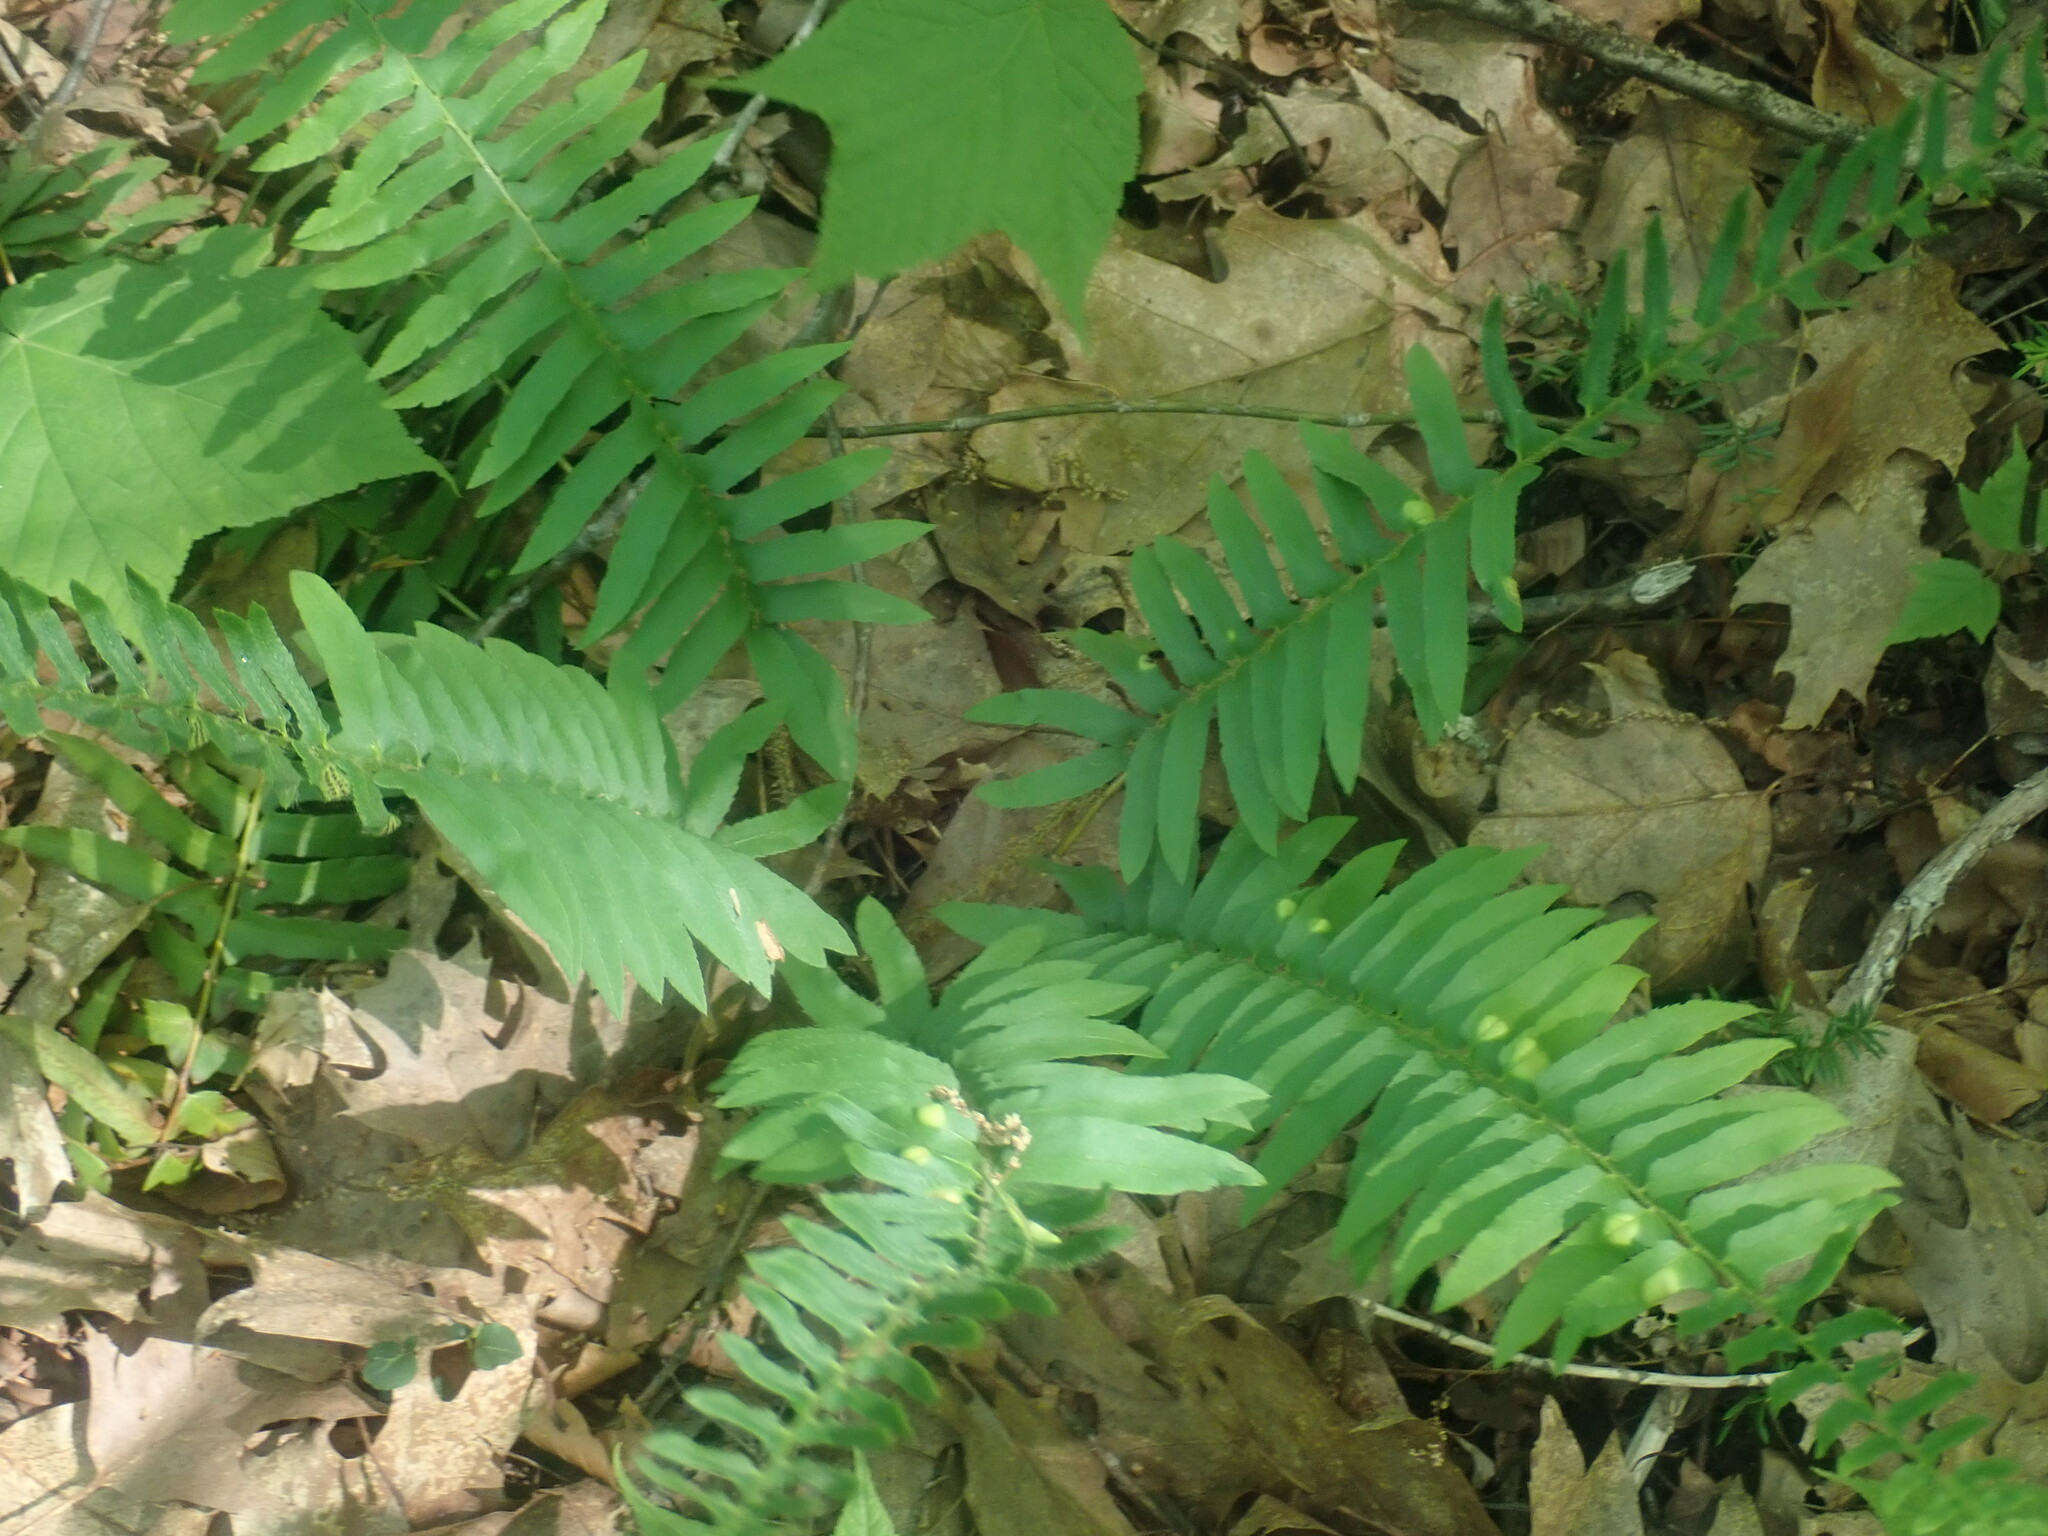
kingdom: Plantae
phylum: Tracheophyta
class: Polypodiopsida
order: Polypodiales
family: Dryopteridaceae
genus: Polystichum
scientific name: Polystichum acrostichoides
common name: Christmas fern
